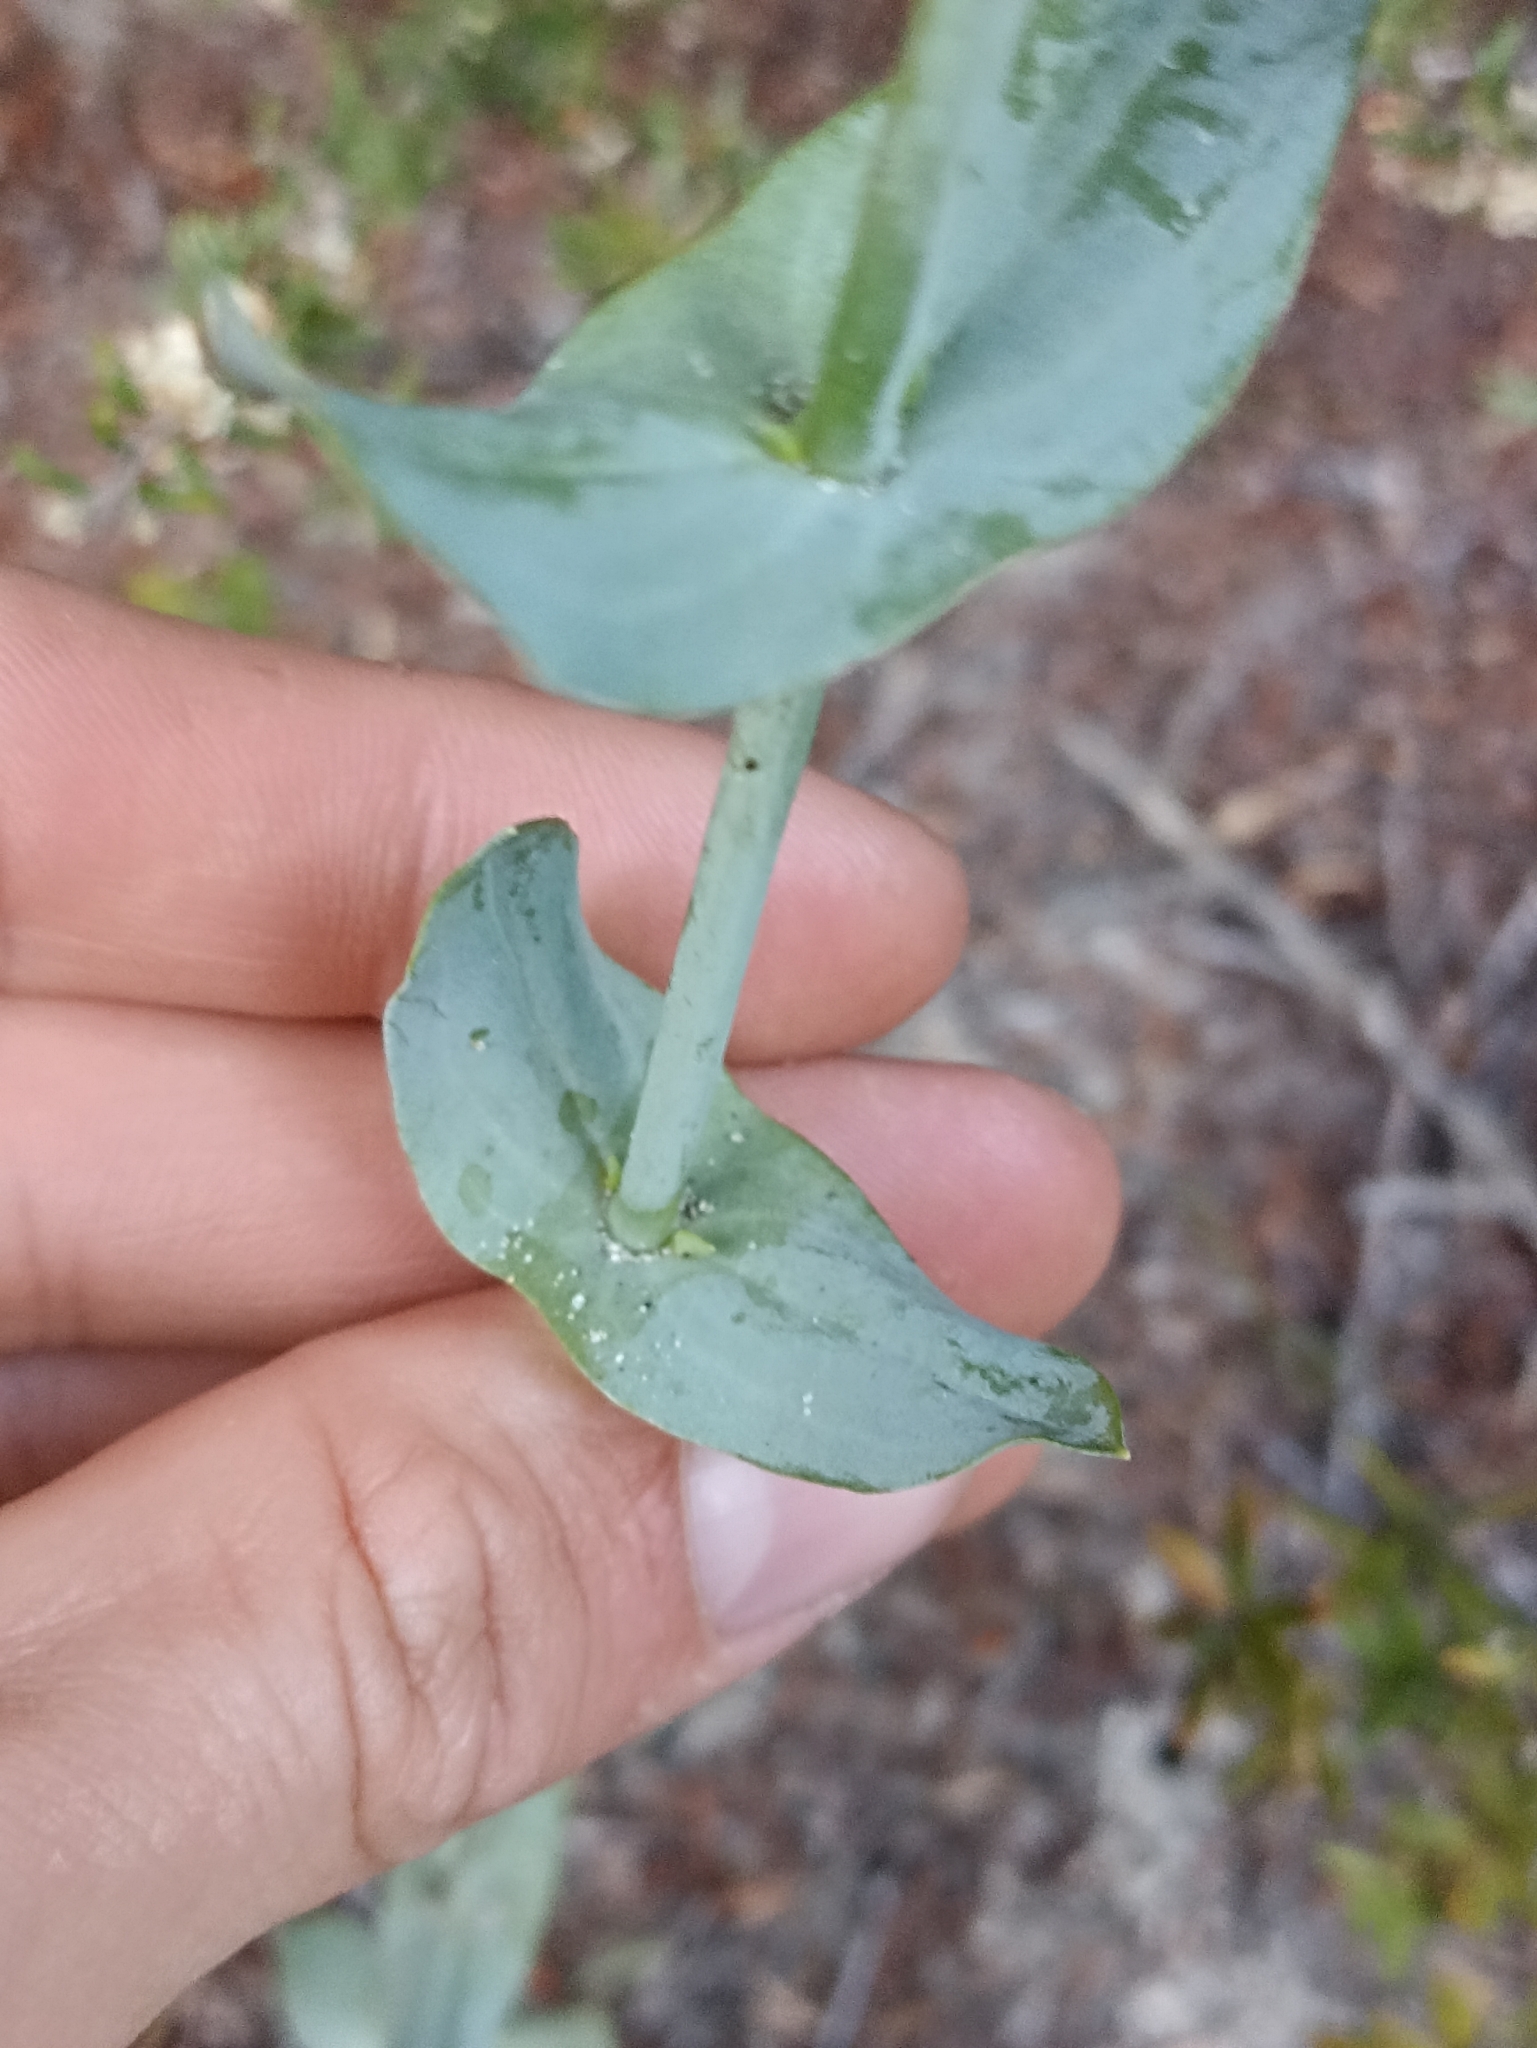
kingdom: Plantae
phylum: Tracheophyta
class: Magnoliopsida
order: Gentianales
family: Gentianaceae
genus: Blackstonia
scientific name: Blackstonia perfoliata
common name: Yellow-wort
